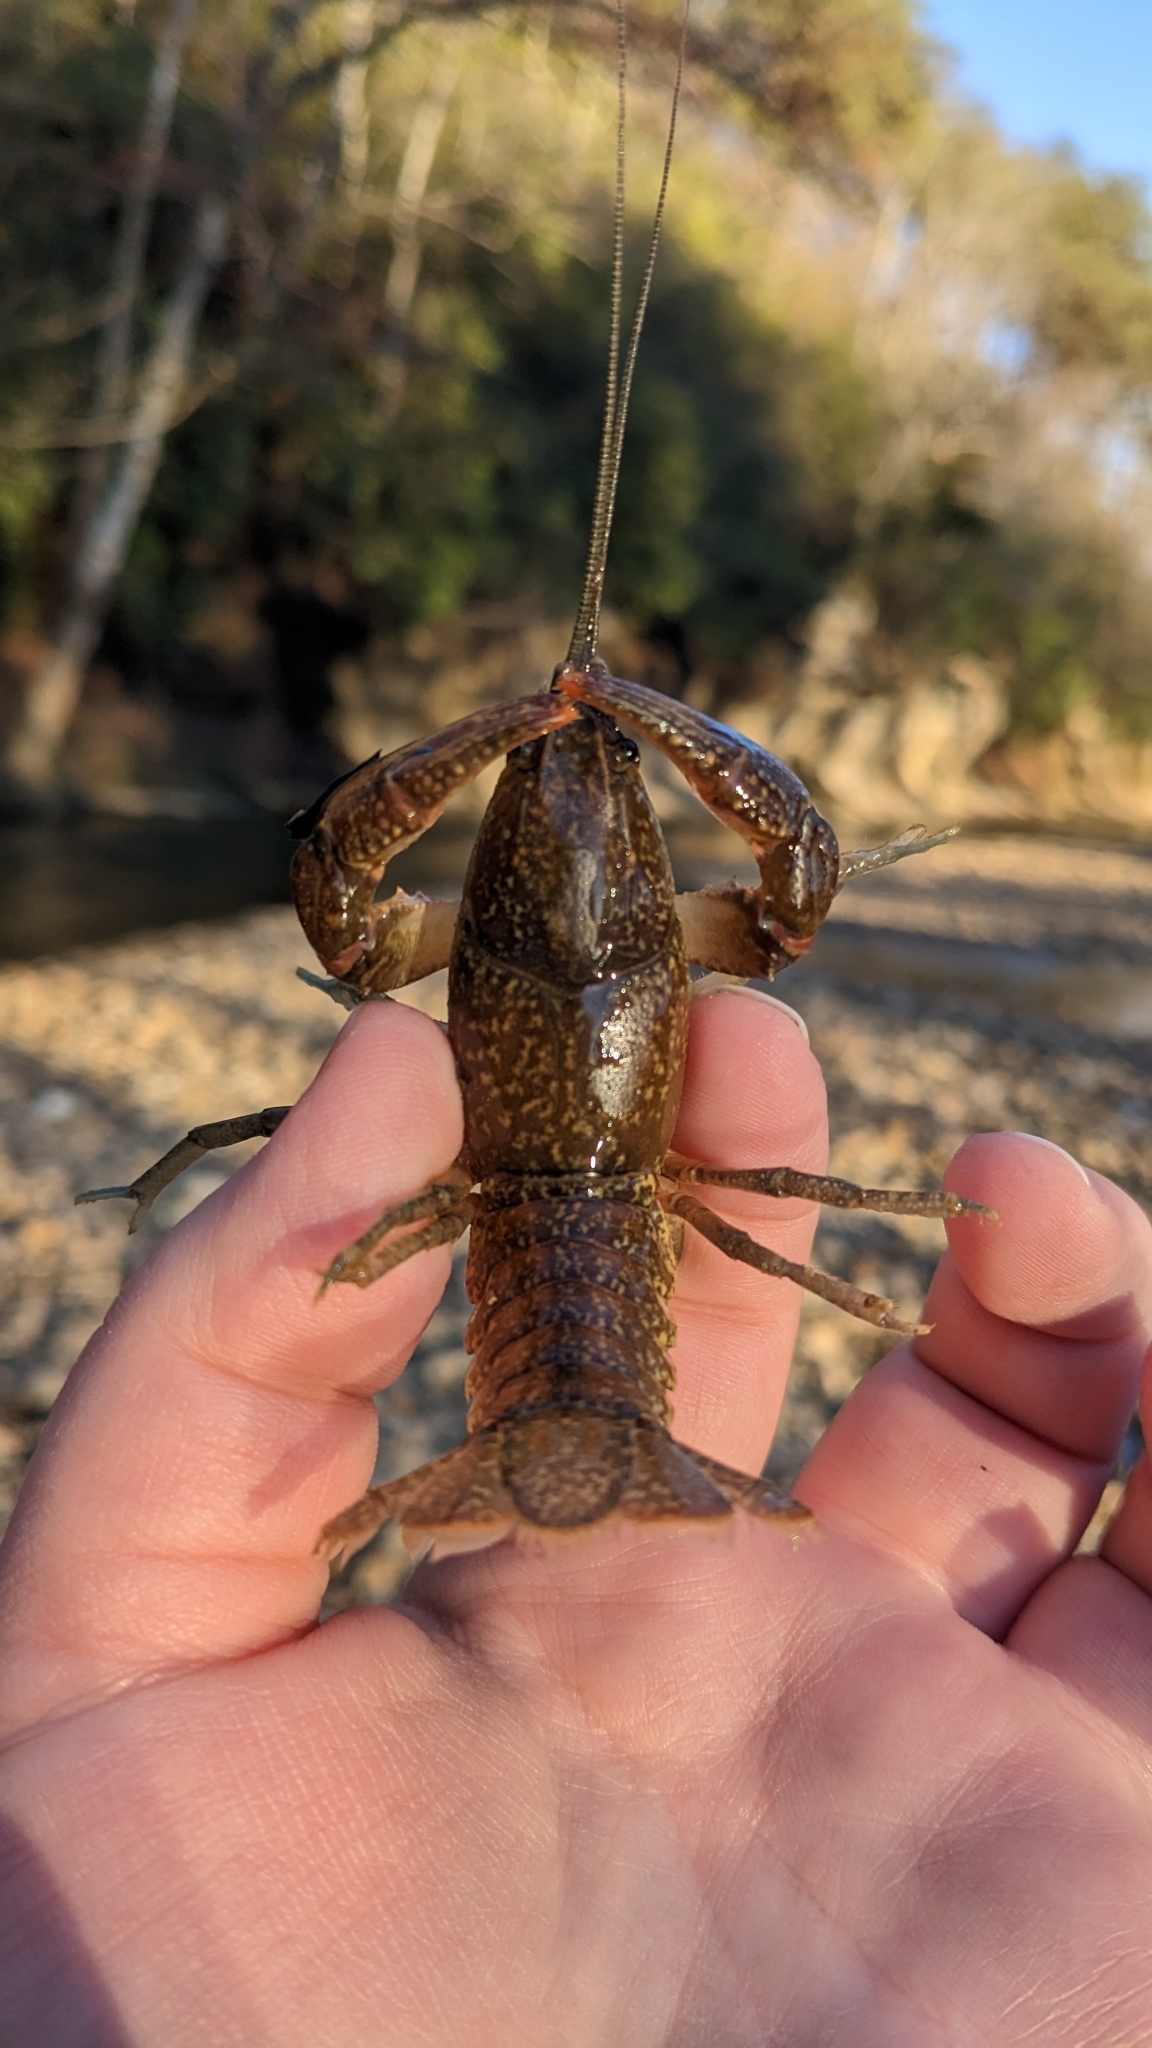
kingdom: Animalia
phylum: Arthropoda
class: Malacostraca
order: Decapoda
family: Cambaridae
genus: Cambarus
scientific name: Cambarus graysoni
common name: Twospot crayfish
